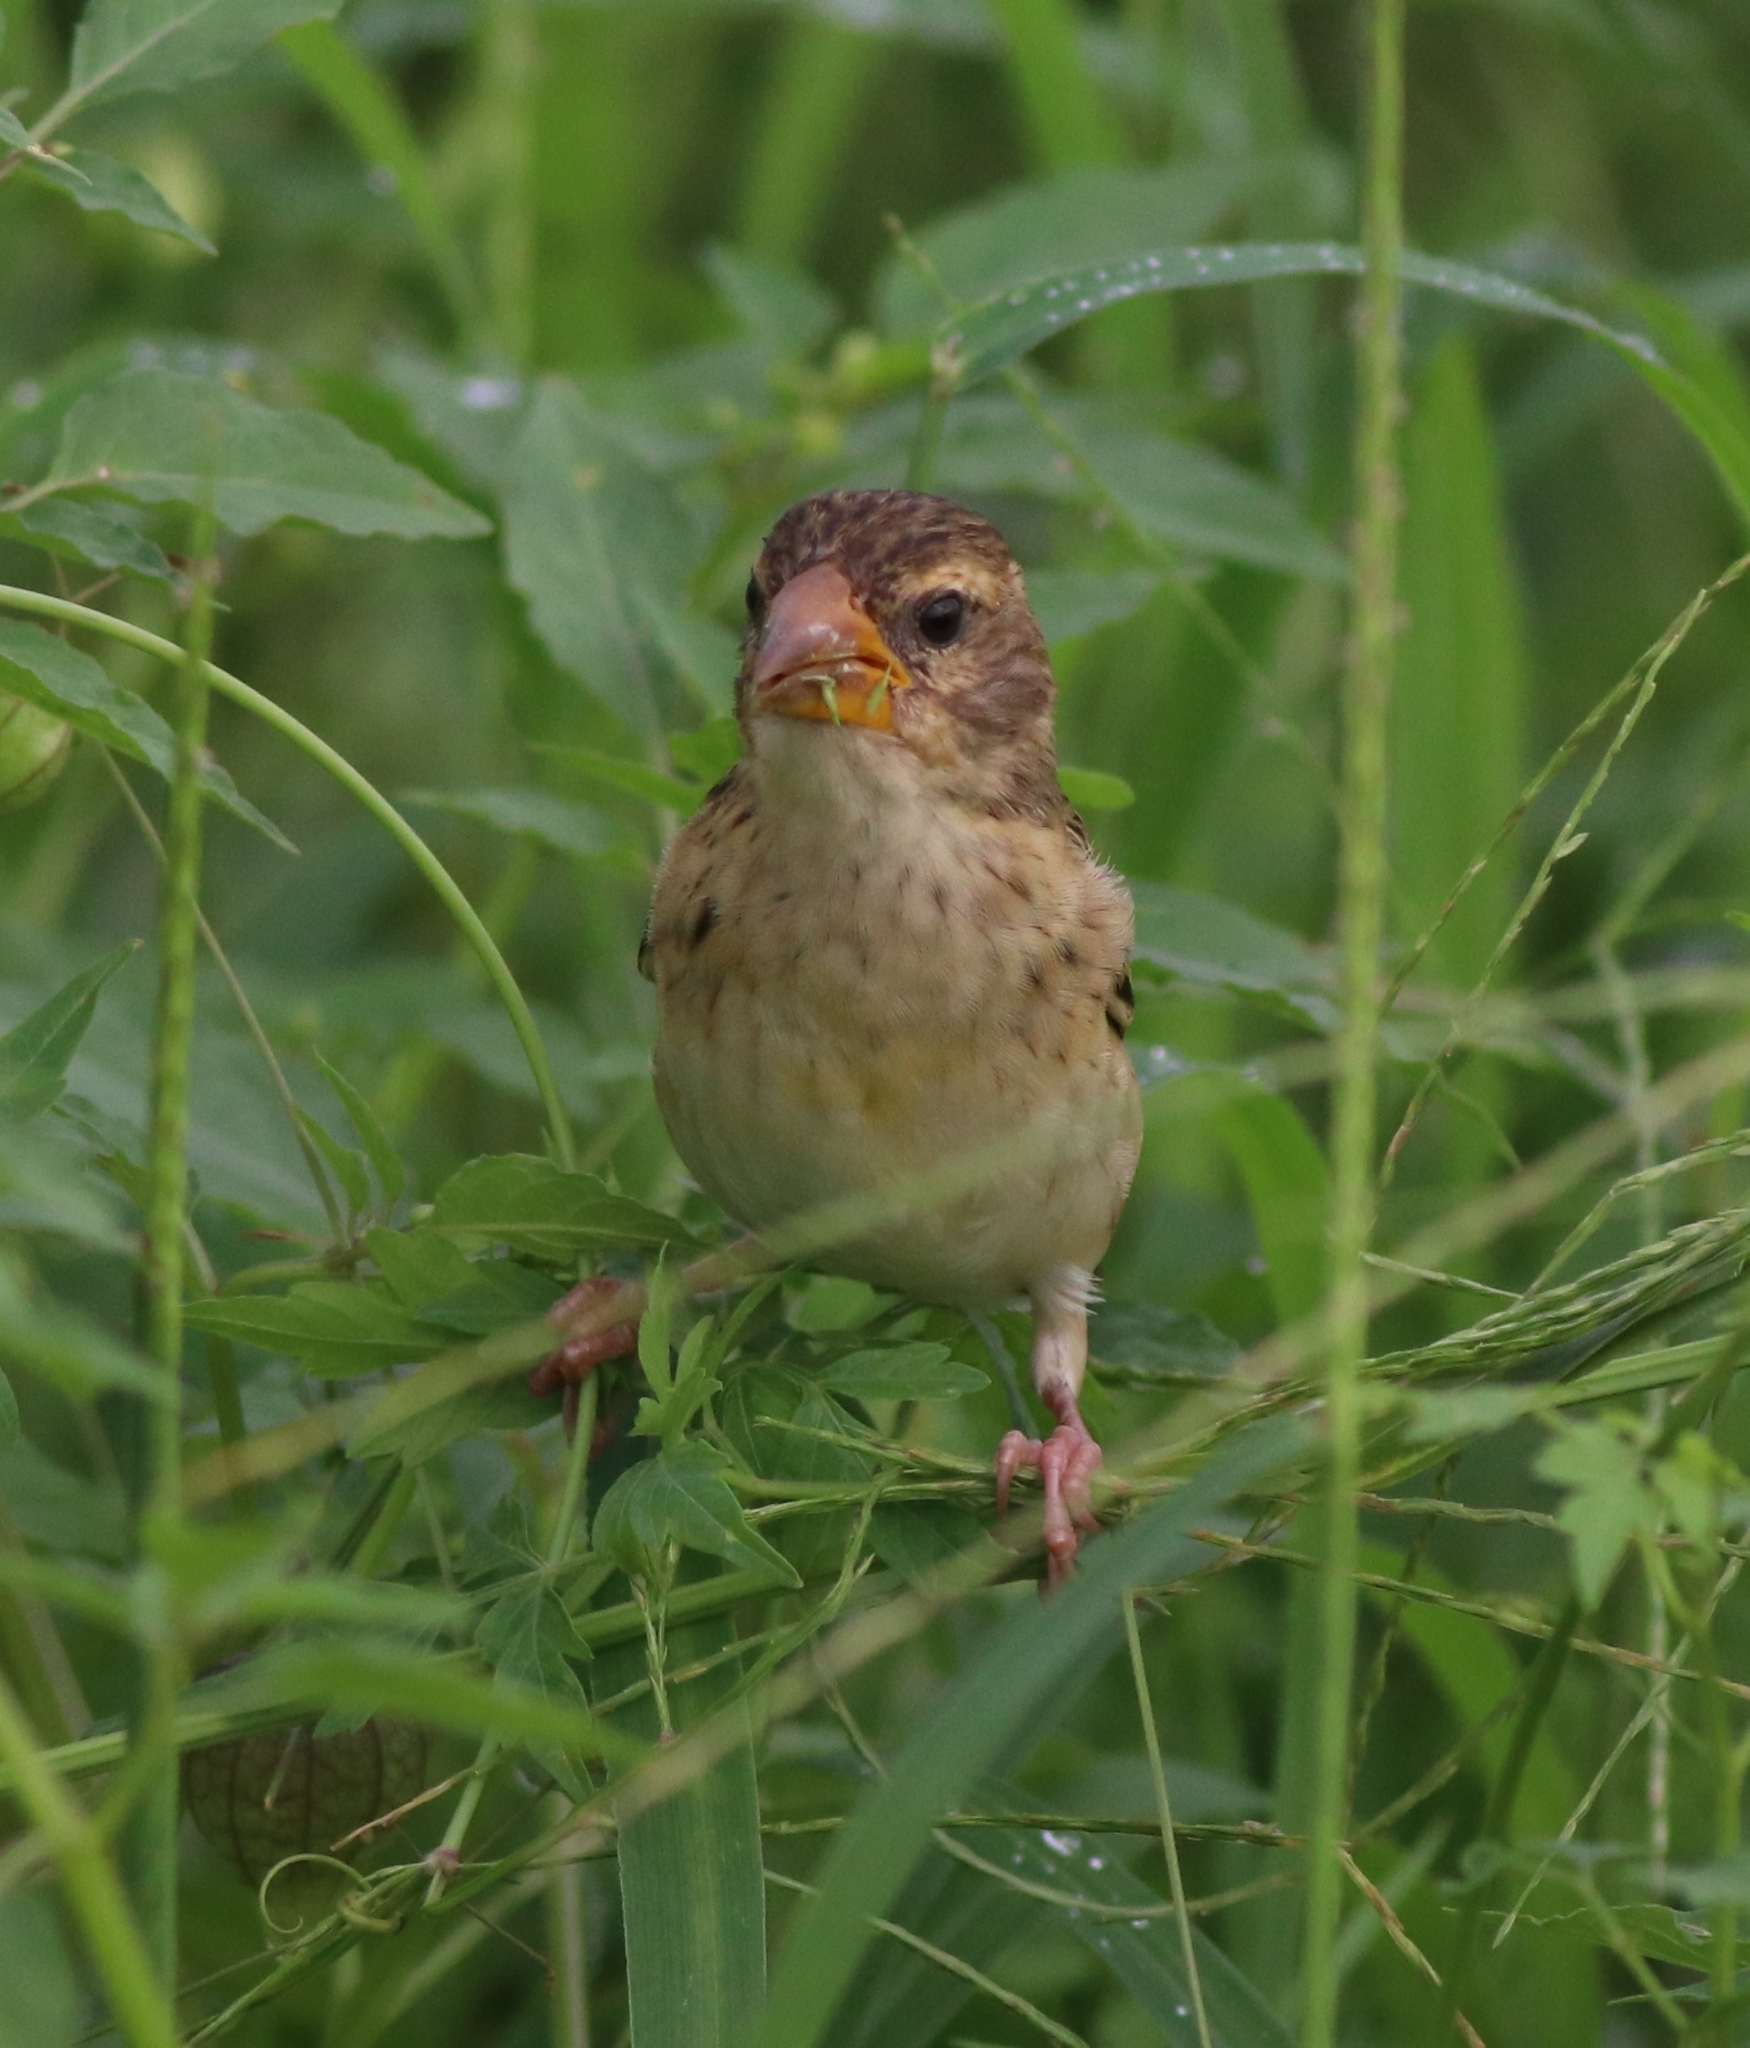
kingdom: Animalia
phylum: Chordata
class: Aves
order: Passeriformes
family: Ploceidae
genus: Ploceus
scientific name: Ploceus philippinus
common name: Baya weaver
